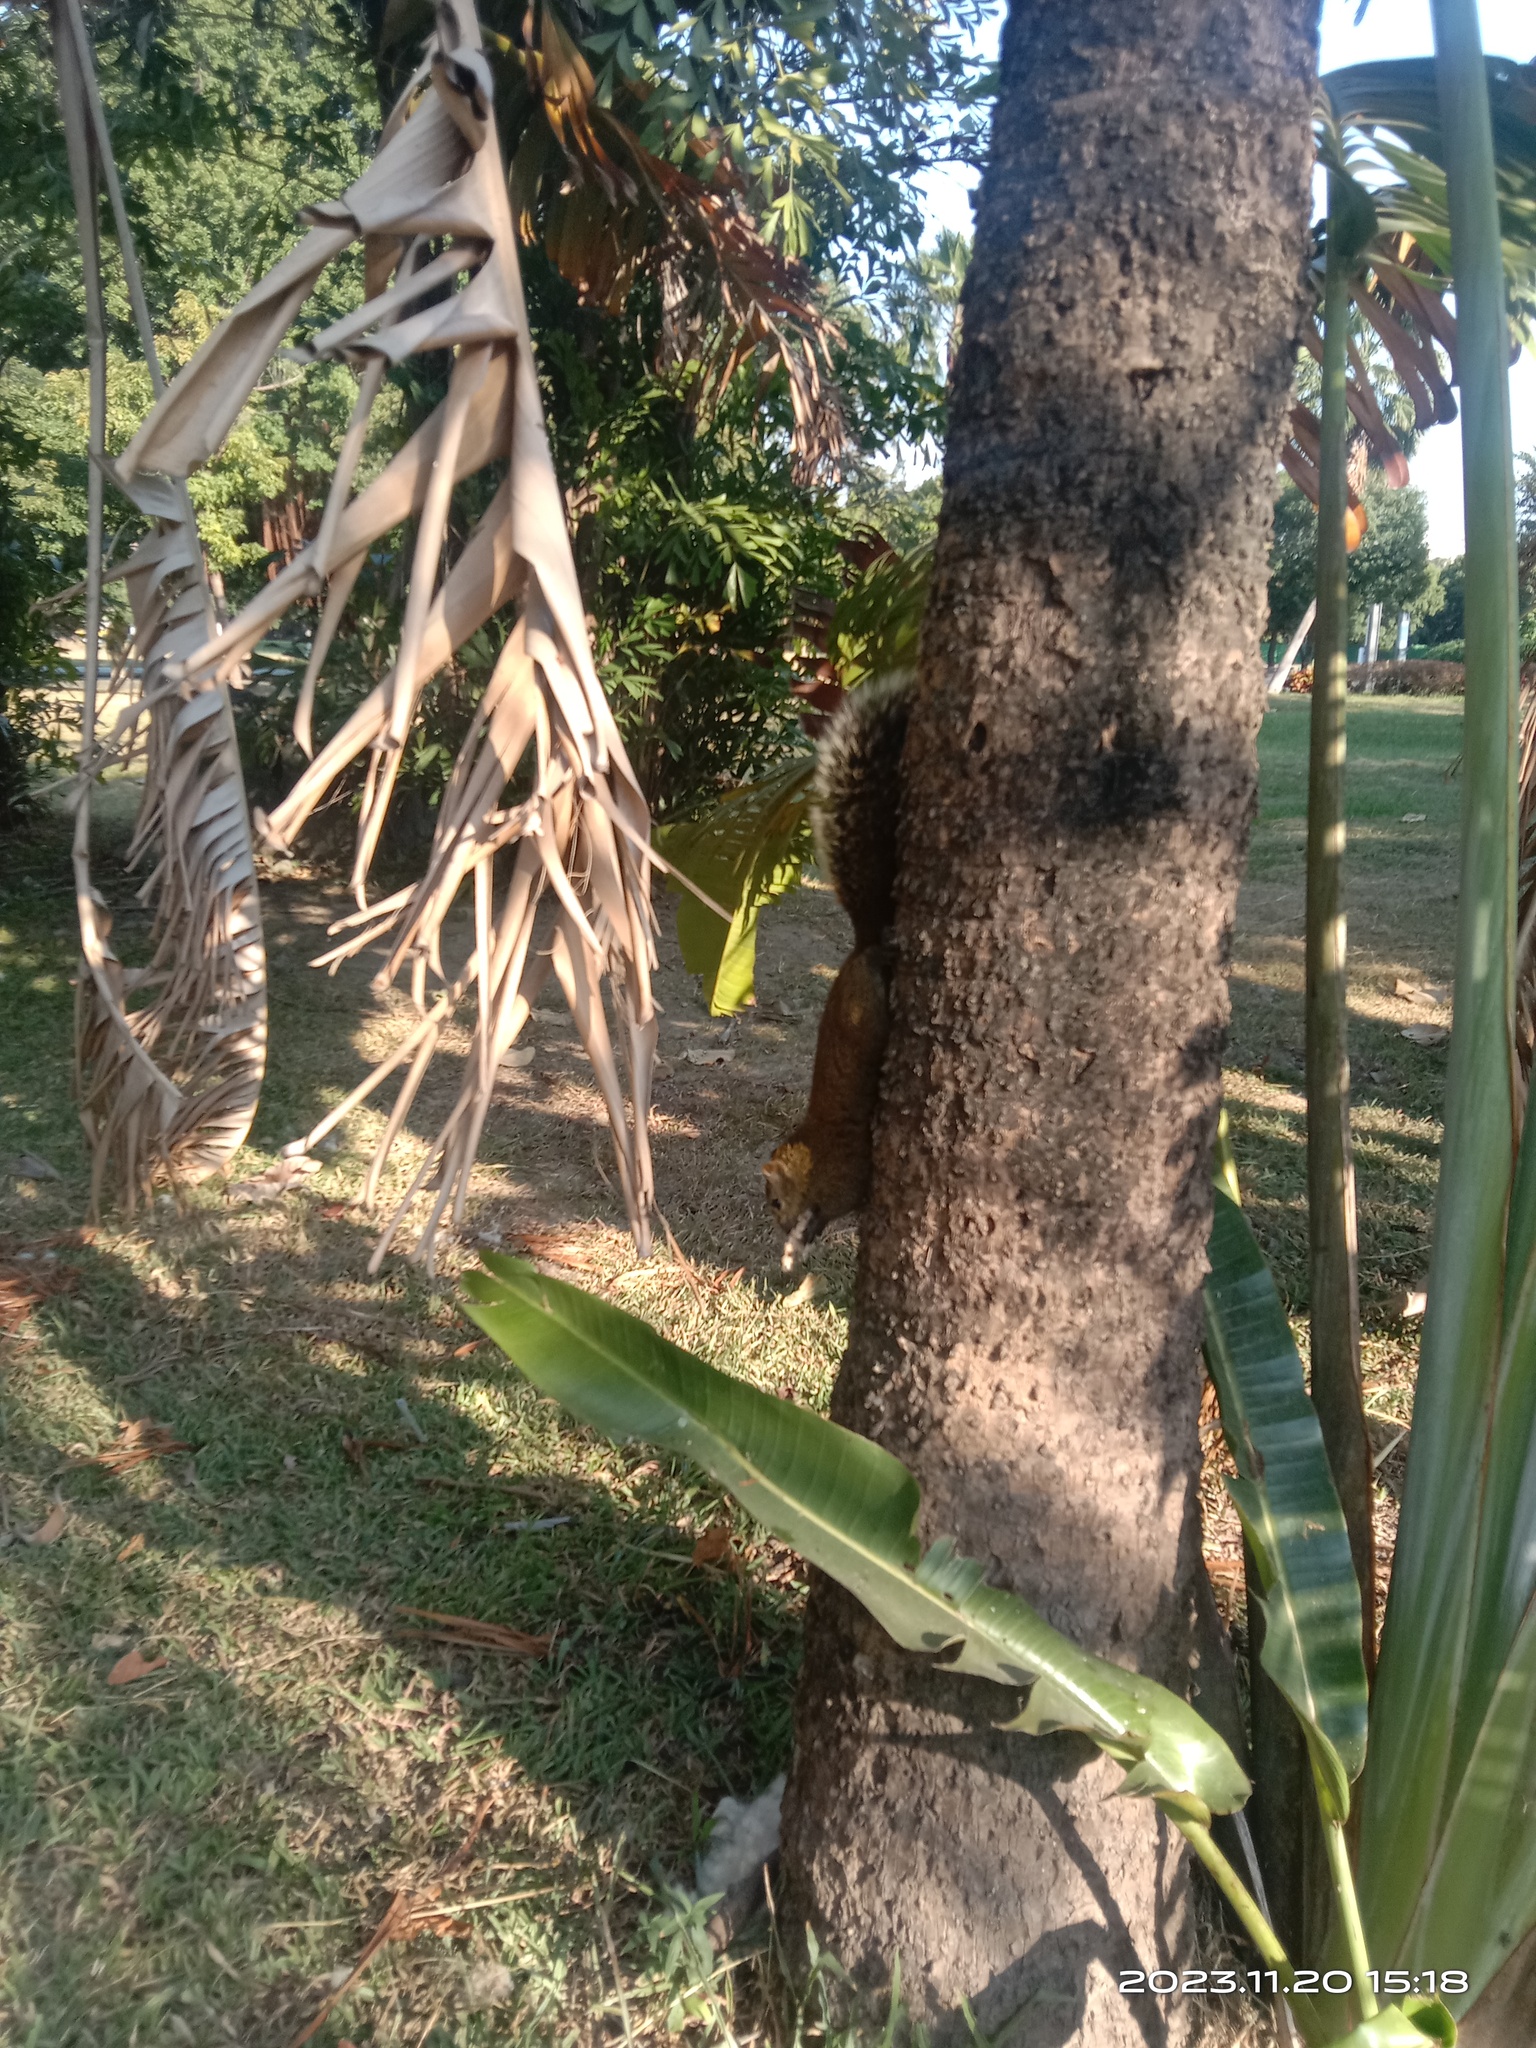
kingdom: Animalia
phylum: Chordata
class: Mammalia
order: Rodentia
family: Sciuridae
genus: Callosciurus
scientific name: Callosciurus erythraeus
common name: Pallas's squirrel
